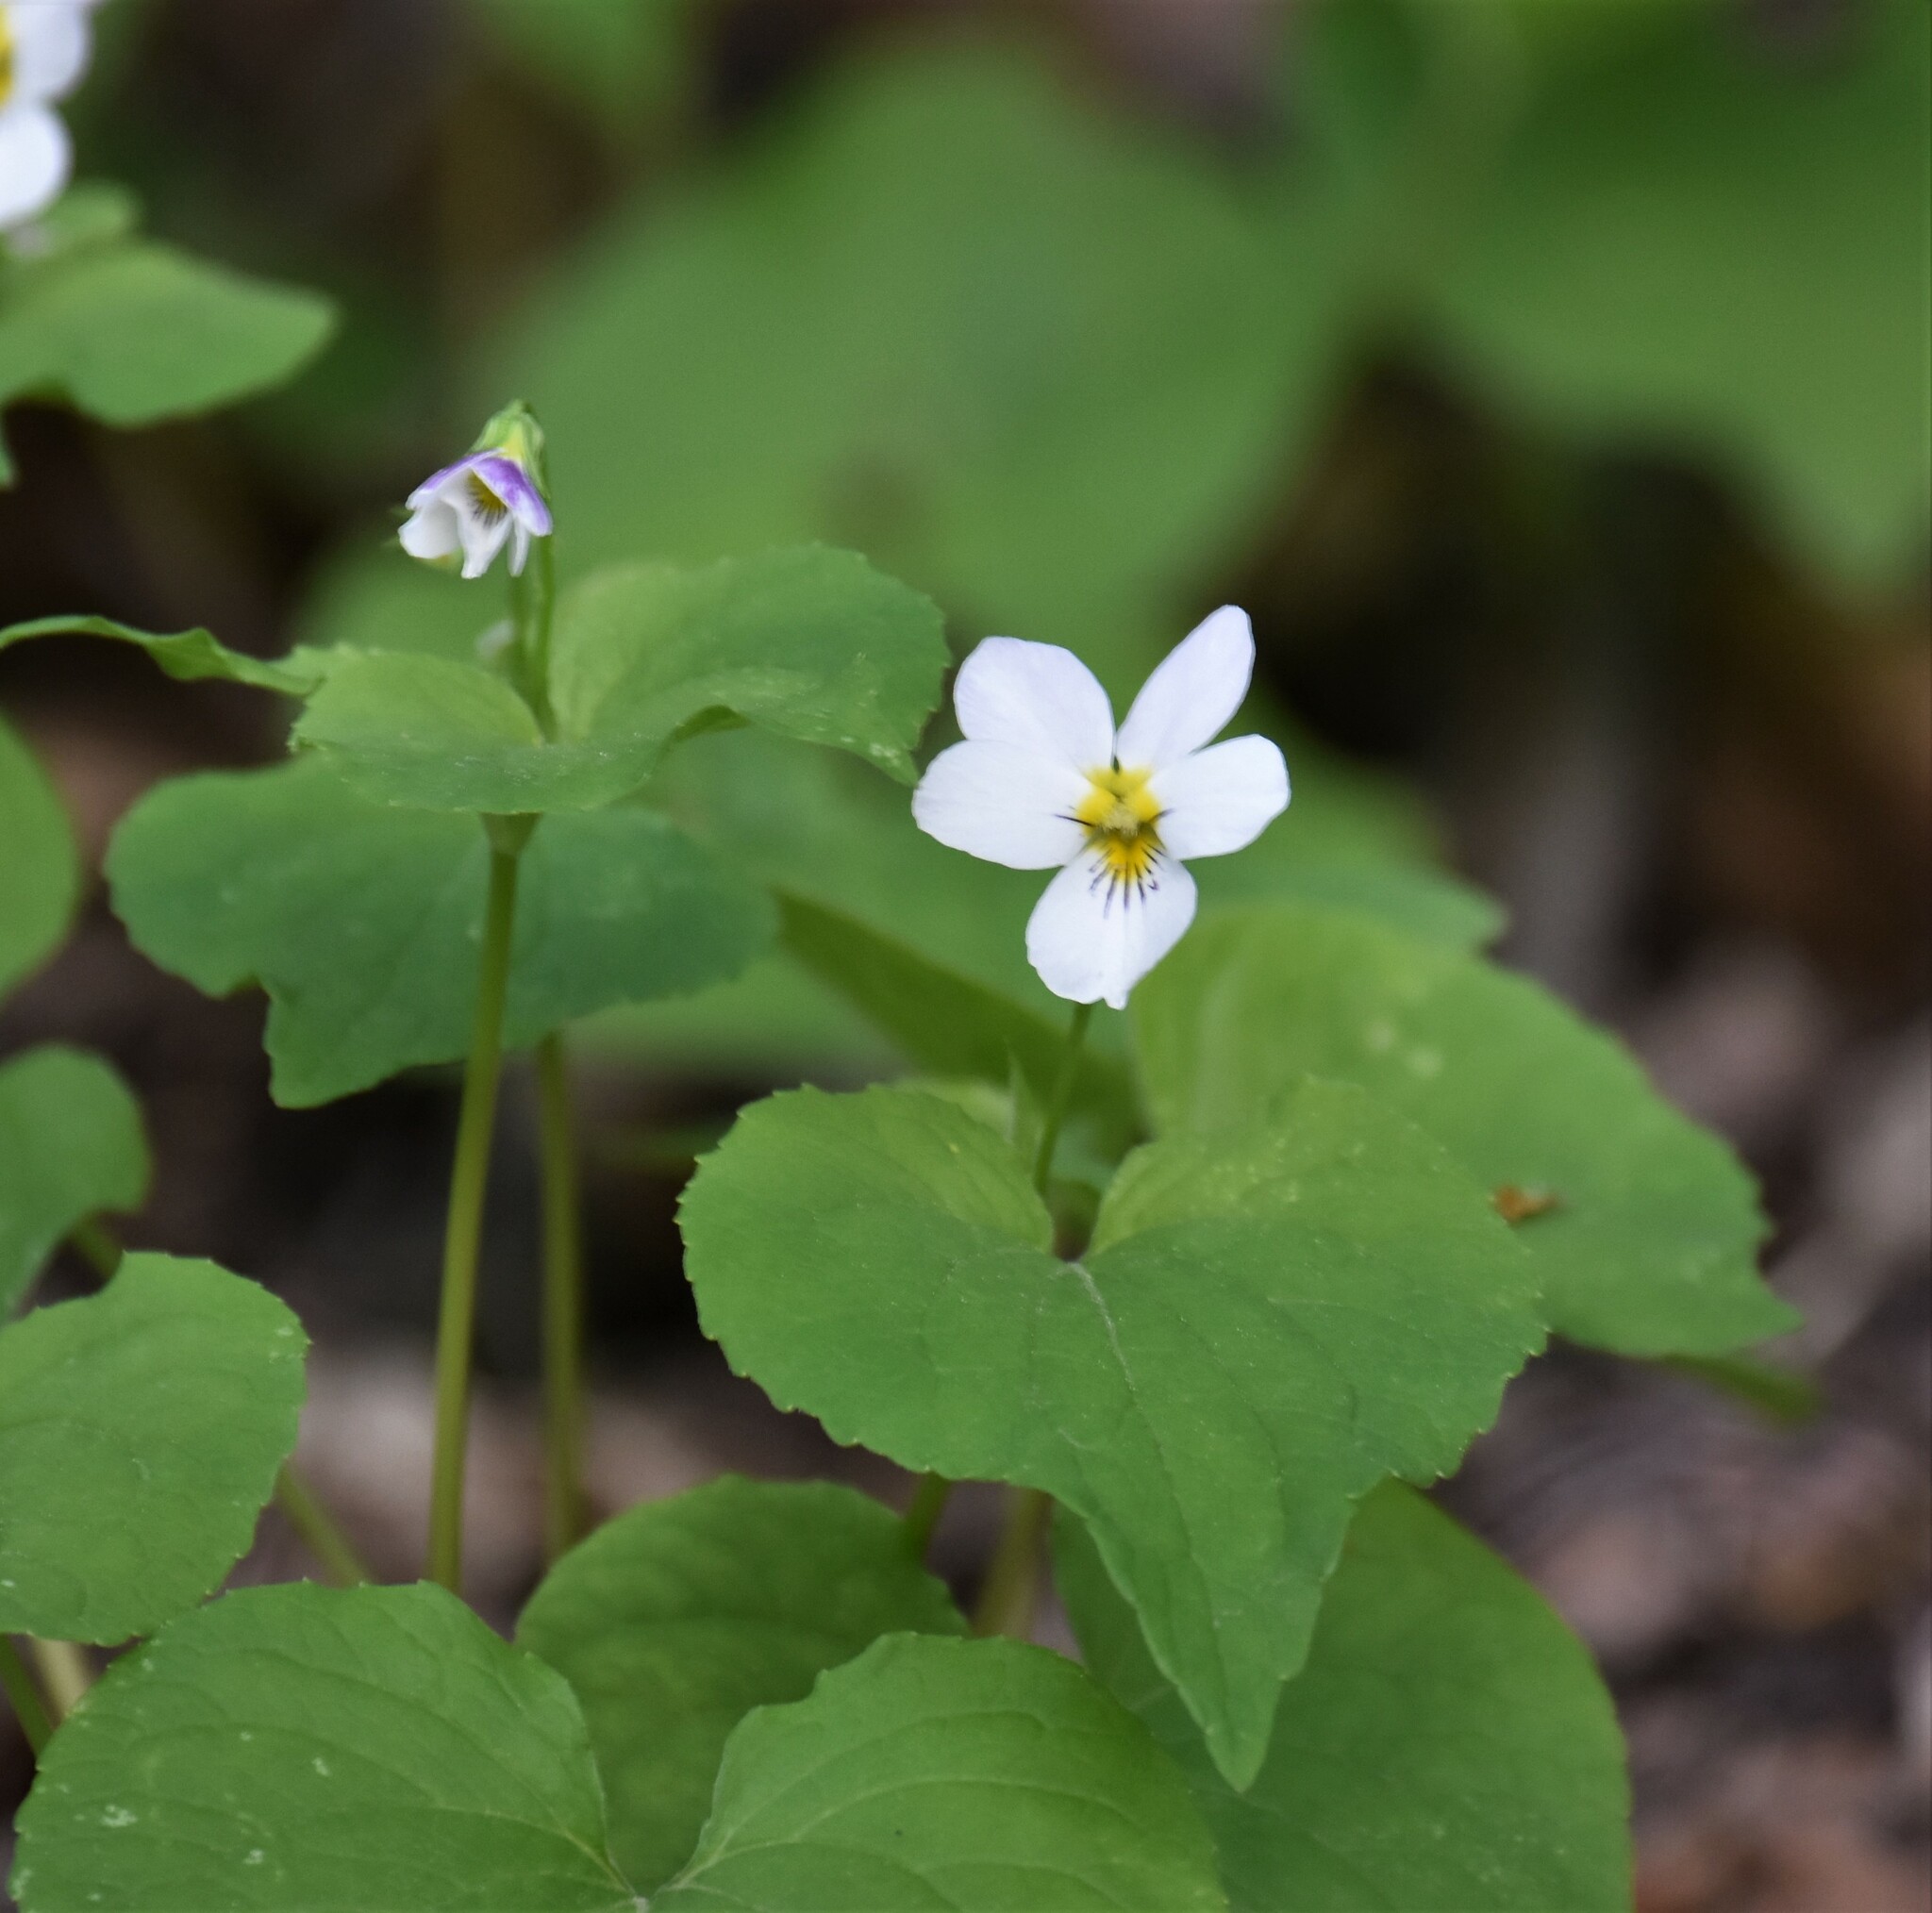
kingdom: Plantae
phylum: Tracheophyta
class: Magnoliopsida
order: Malpighiales
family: Violaceae
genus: Viola
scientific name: Viola canadensis
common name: Canada violet
